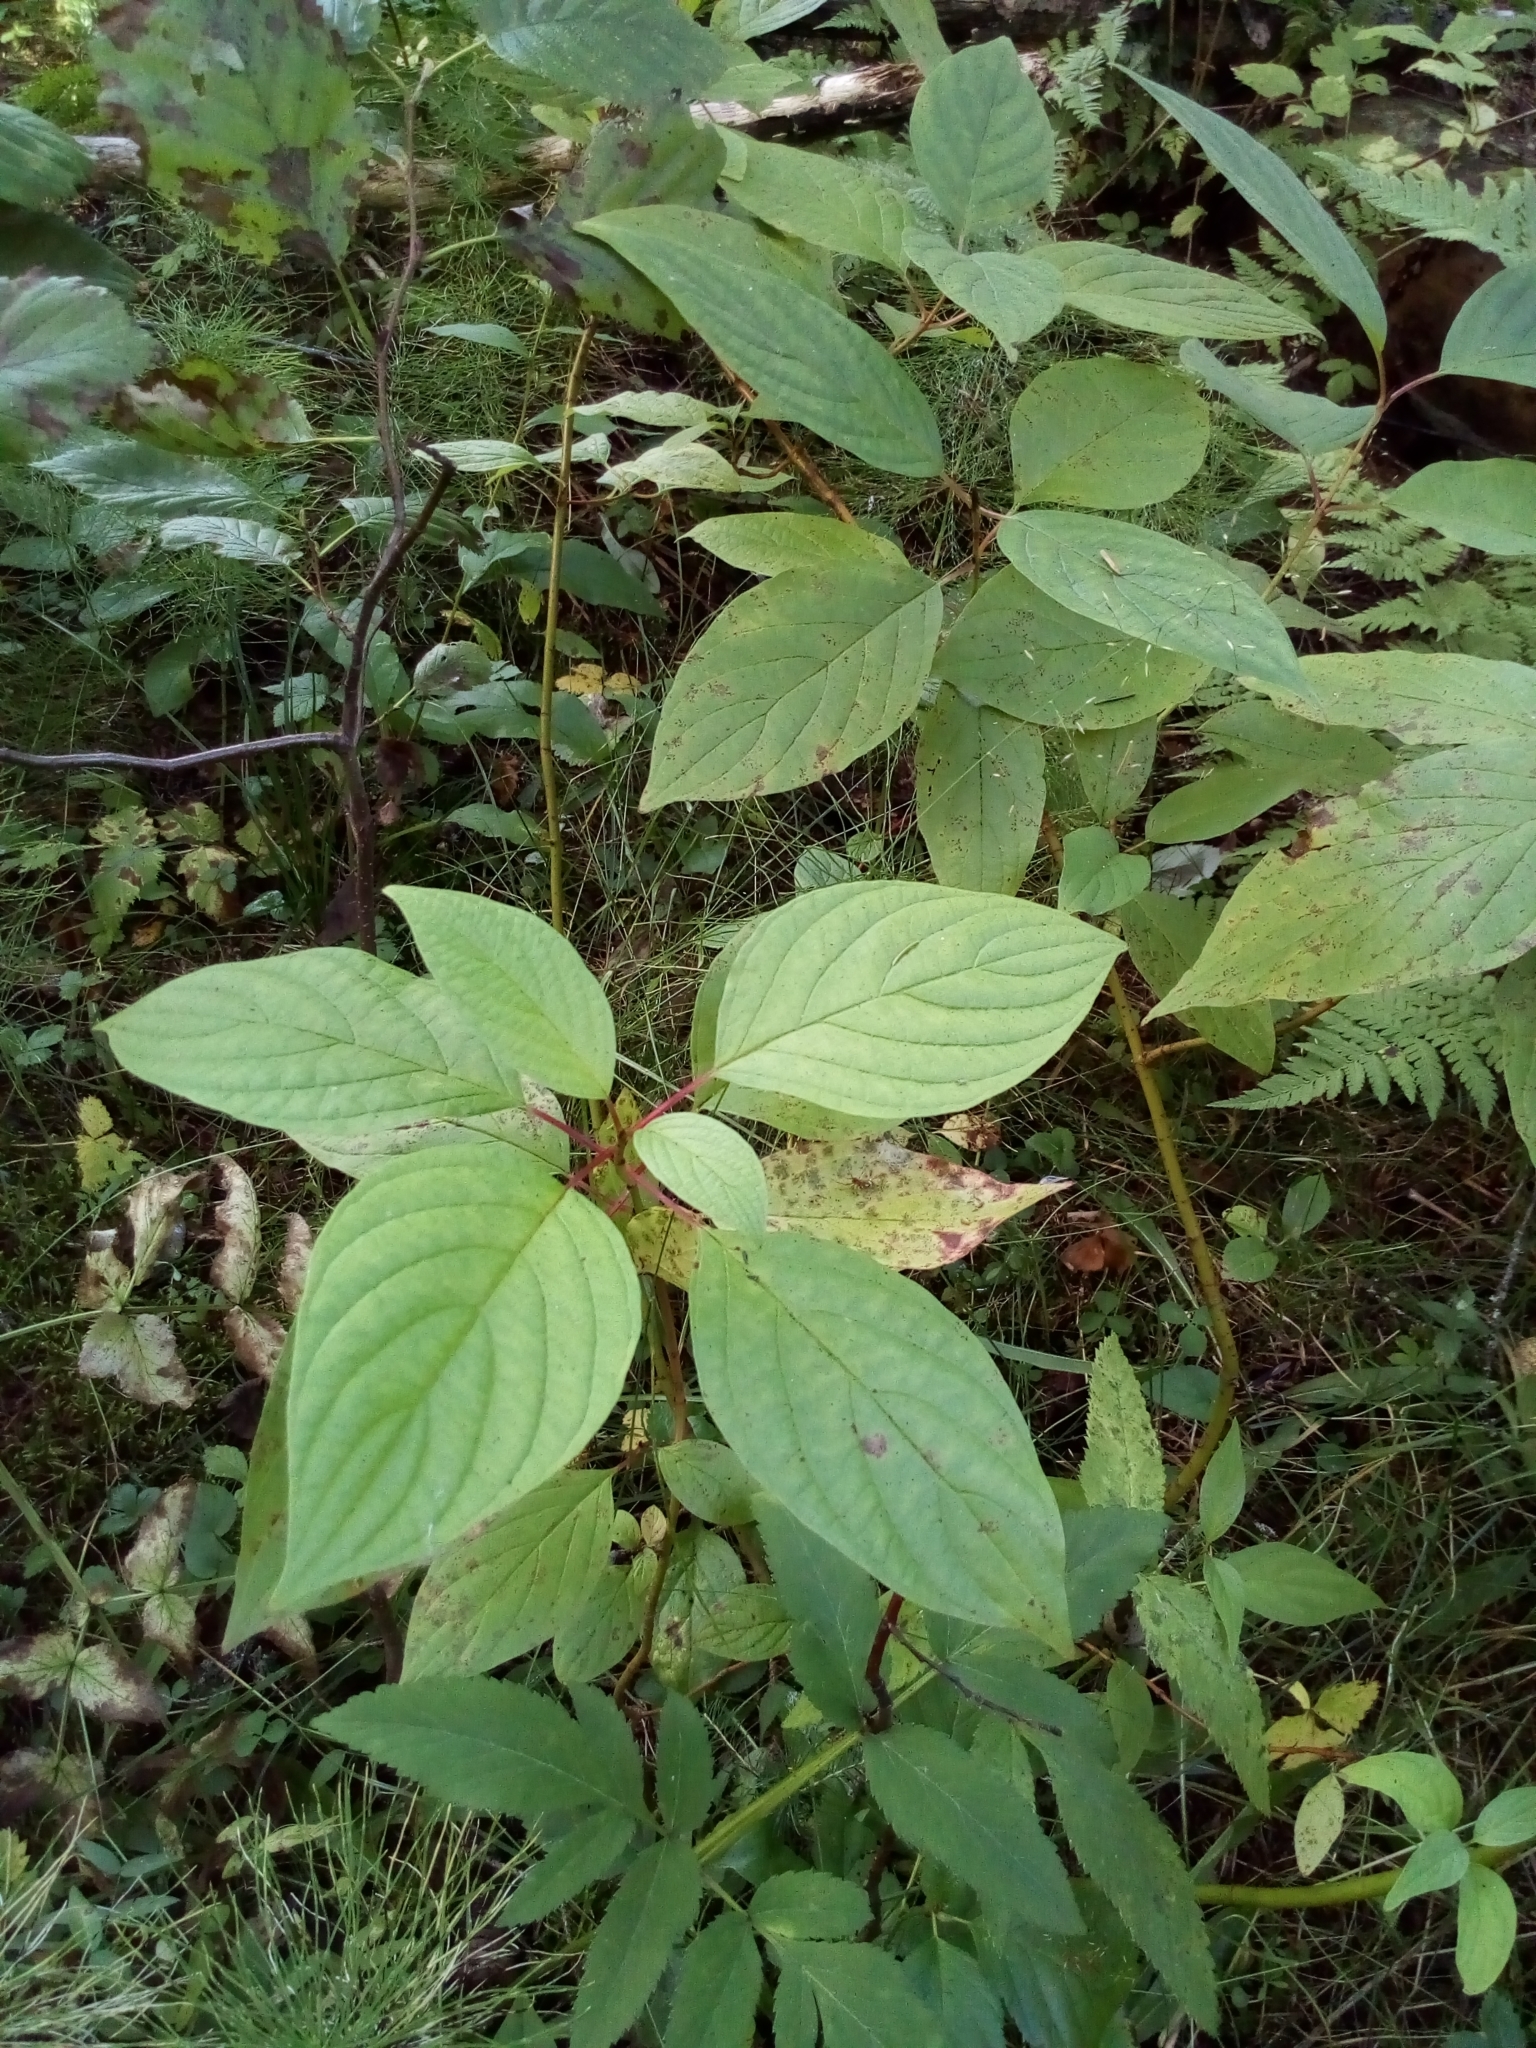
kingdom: Plantae
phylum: Tracheophyta
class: Magnoliopsida
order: Cornales
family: Cornaceae
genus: Cornus
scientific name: Cornus alba
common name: White dogwood
